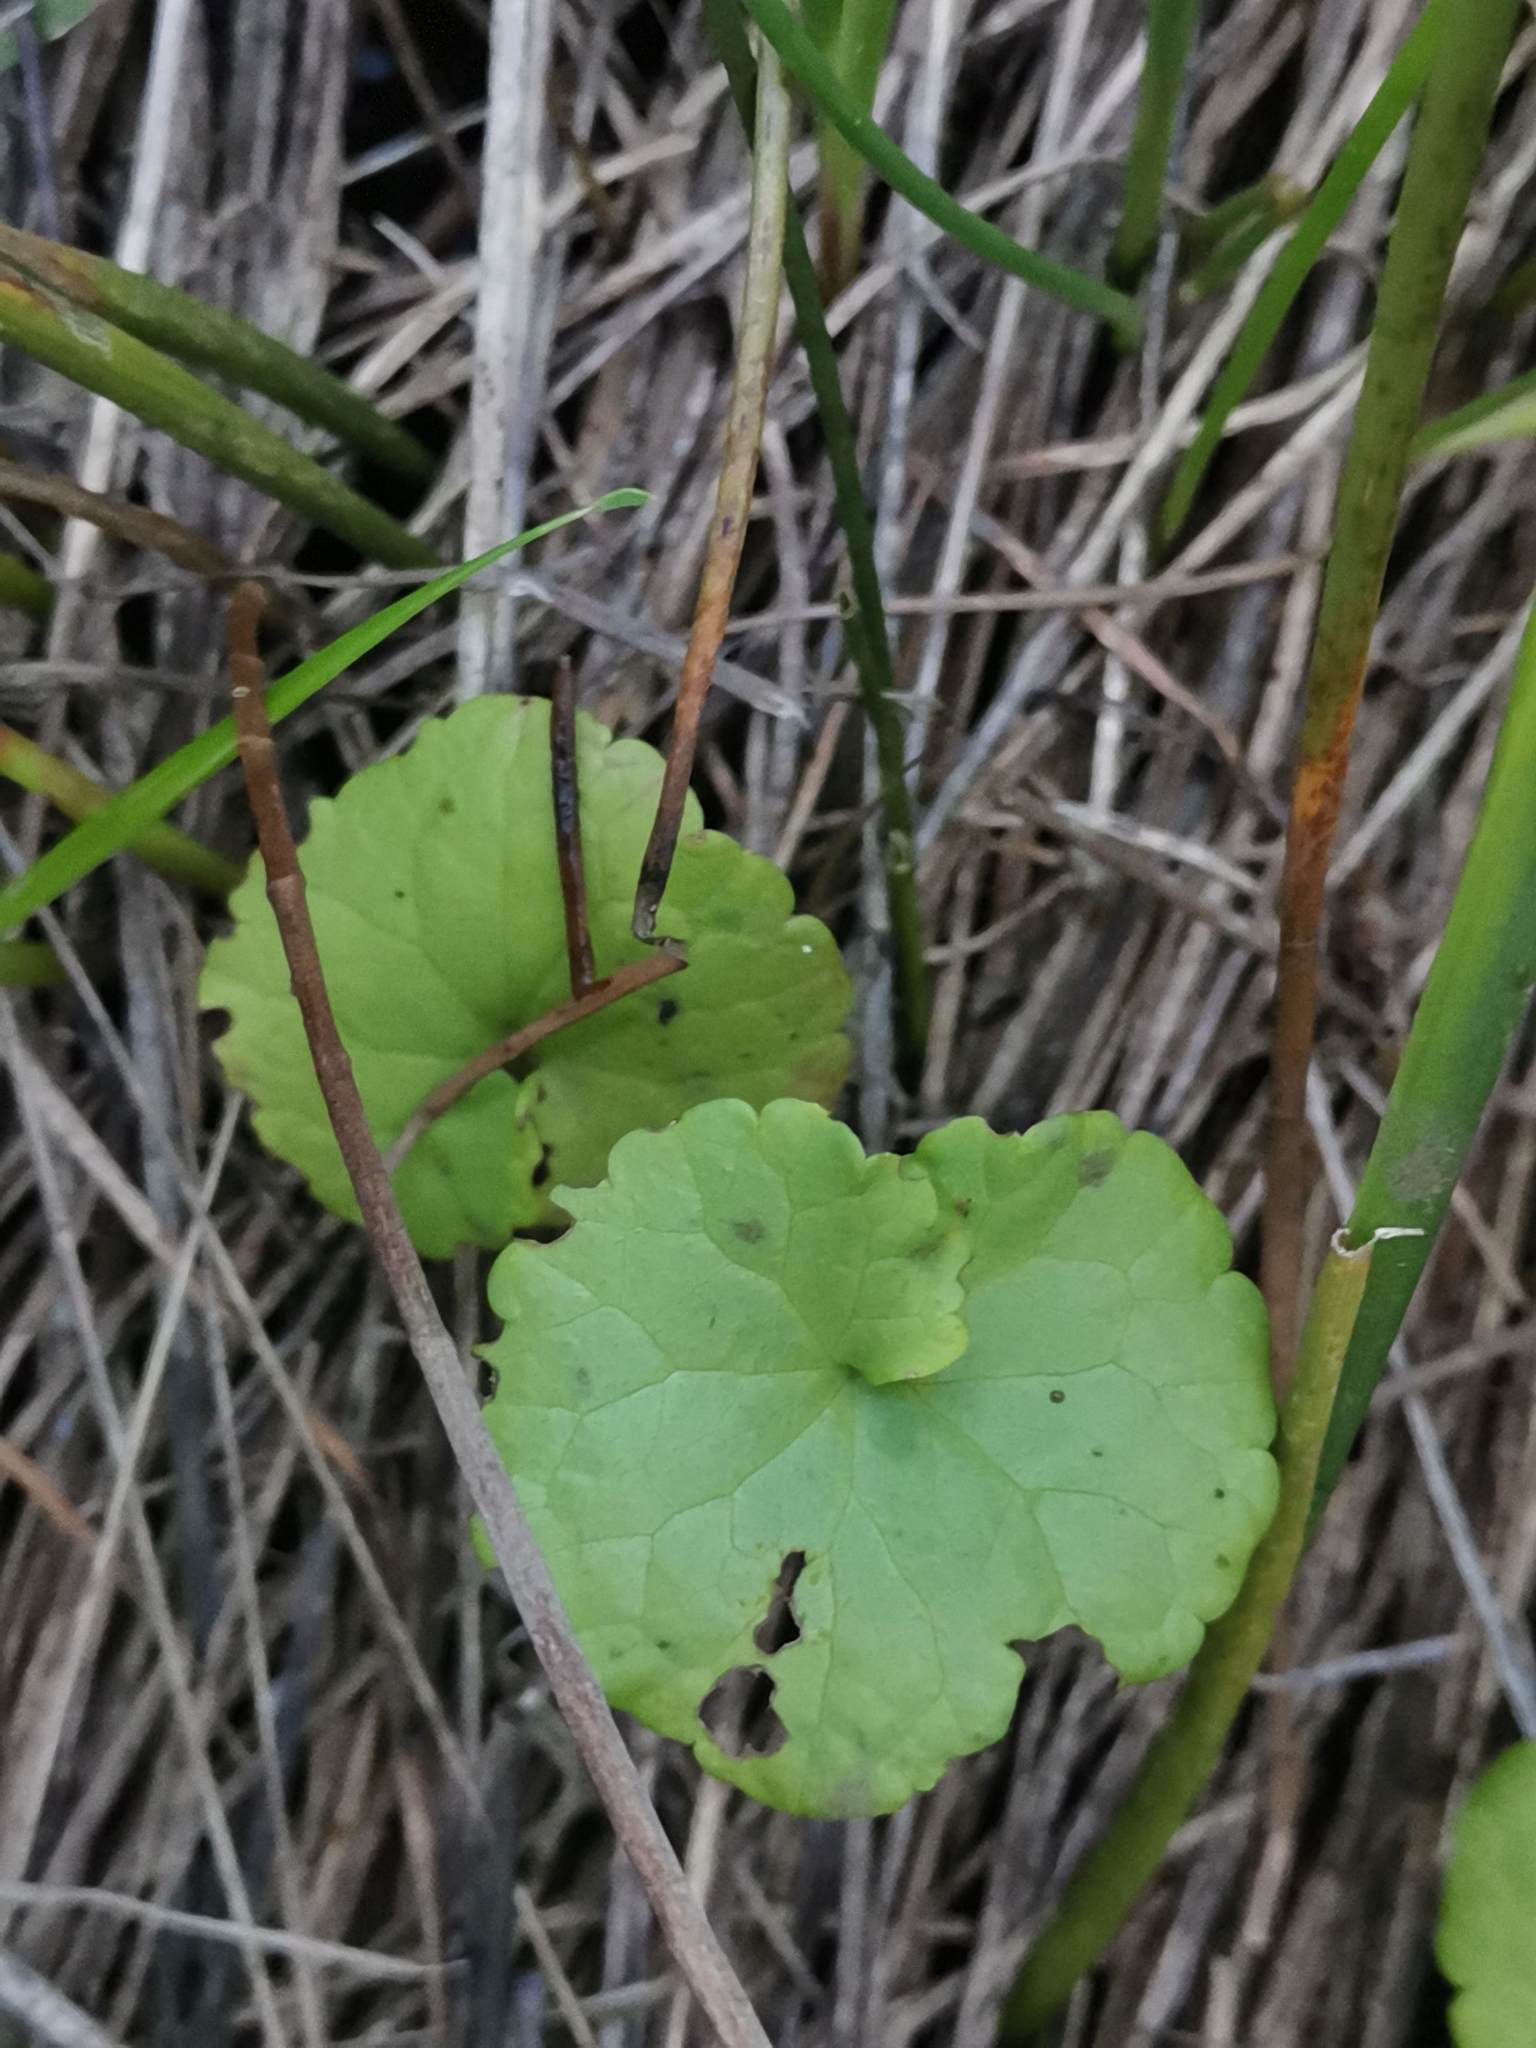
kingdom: Plantae
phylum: Tracheophyta
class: Magnoliopsida
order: Lamiales
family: Lamiaceae
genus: Glechoma
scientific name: Glechoma hederacea
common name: Ground ivy
